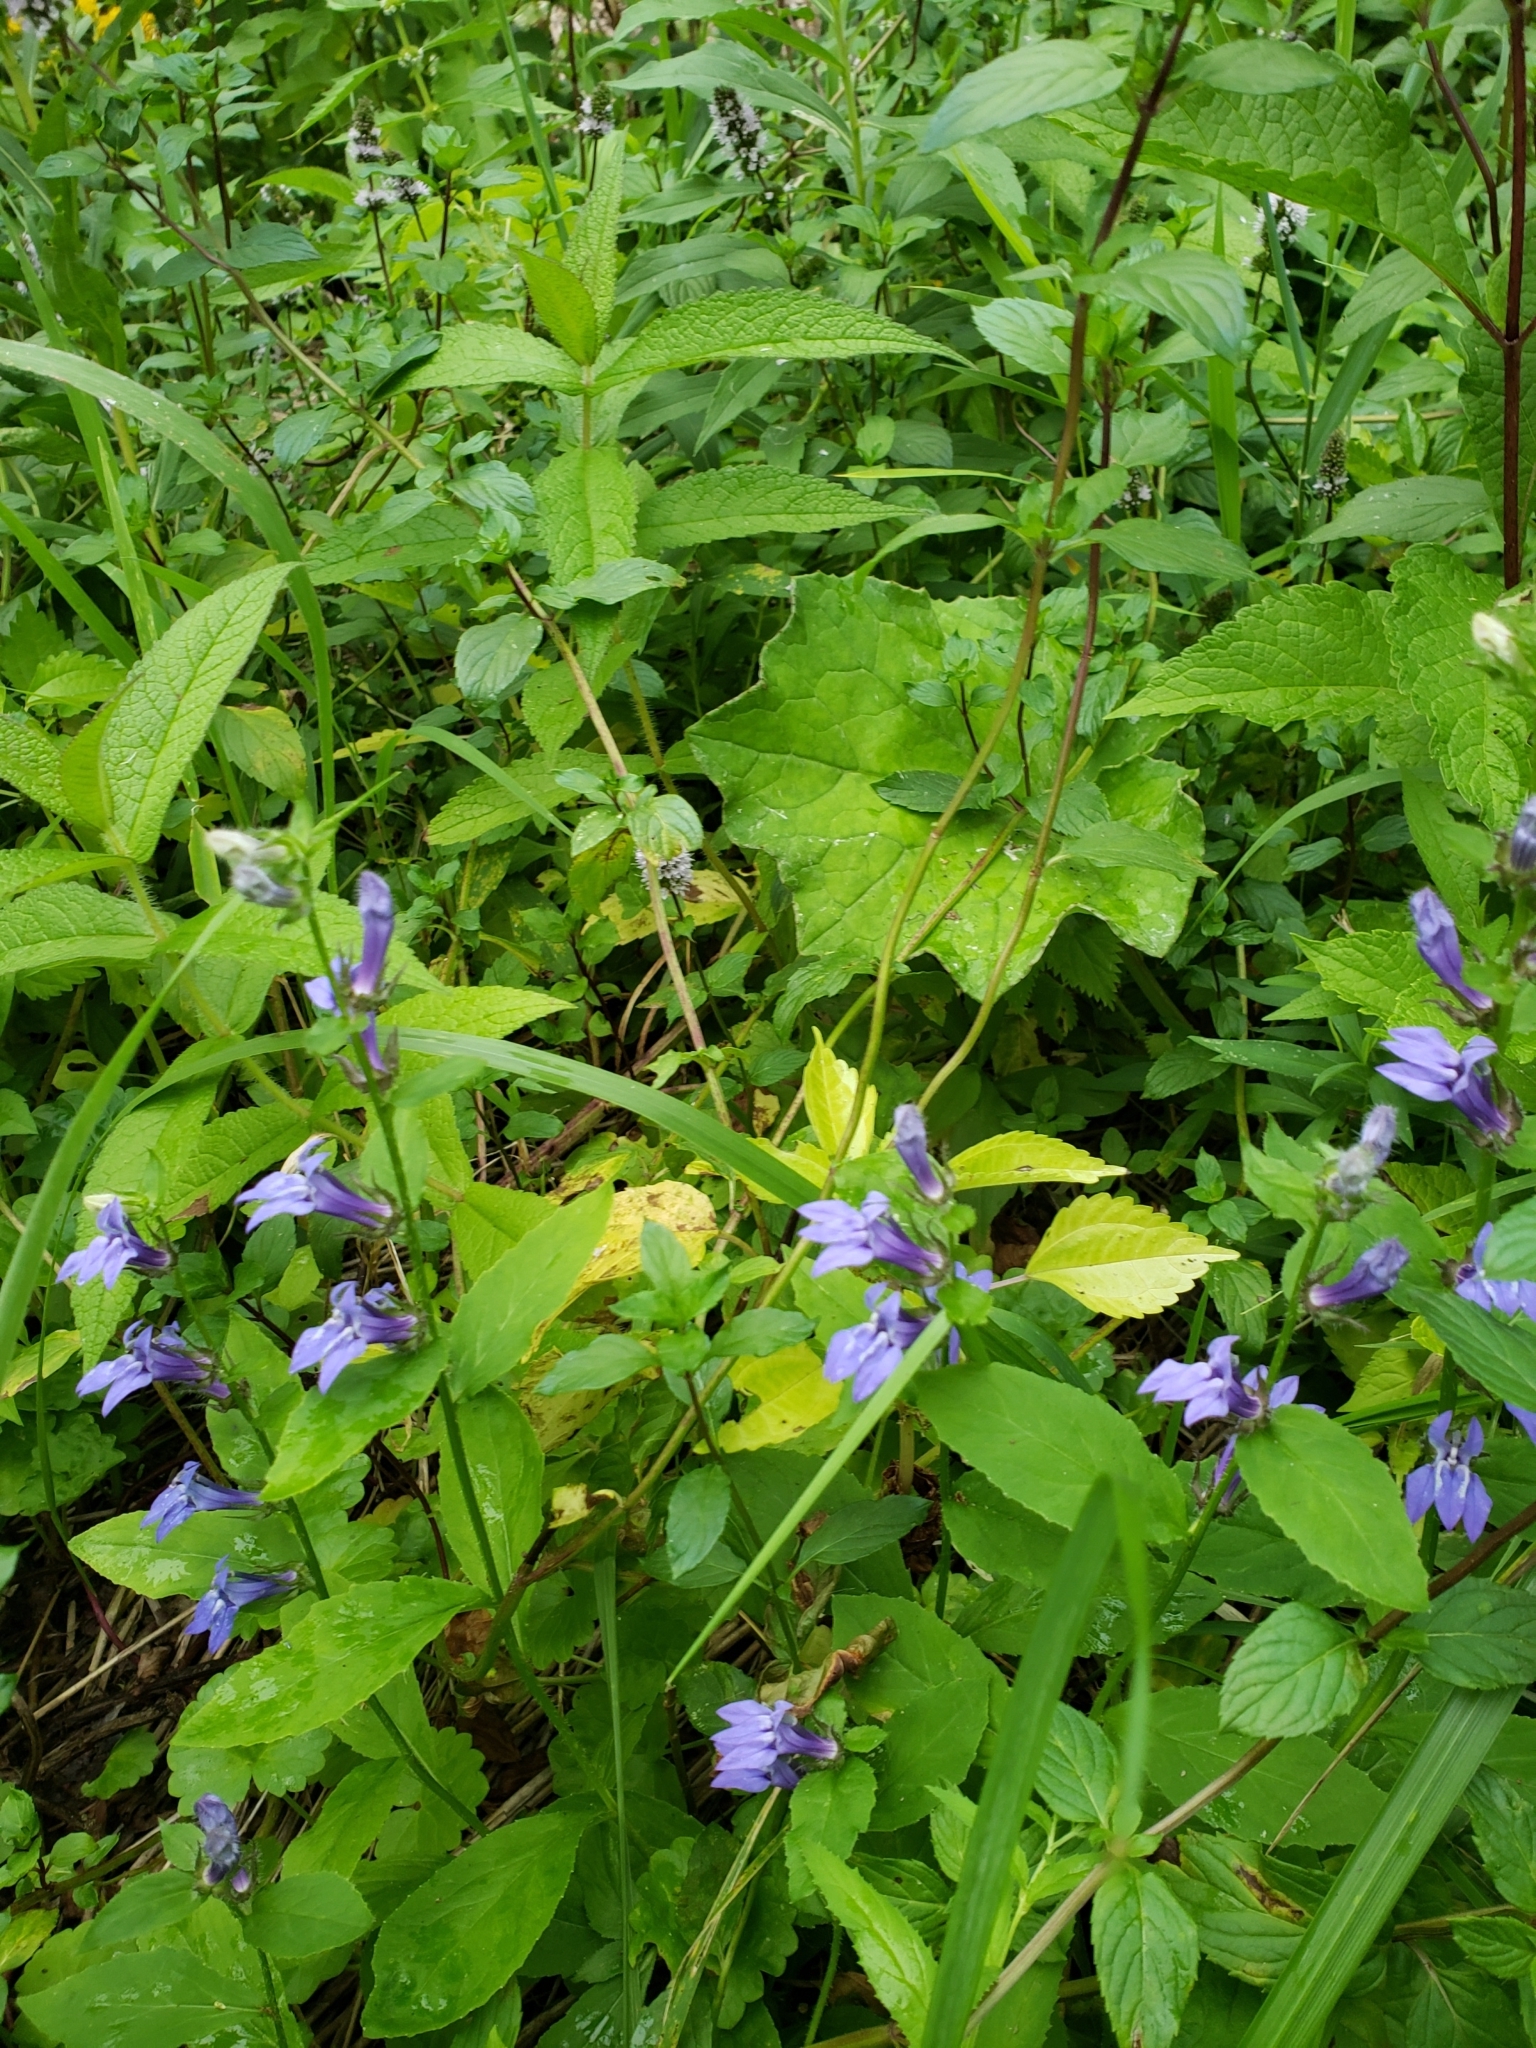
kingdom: Plantae
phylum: Tracheophyta
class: Magnoliopsida
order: Asterales
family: Campanulaceae
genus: Lobelia
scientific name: Lobelia siphilitica
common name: Great lobelia
